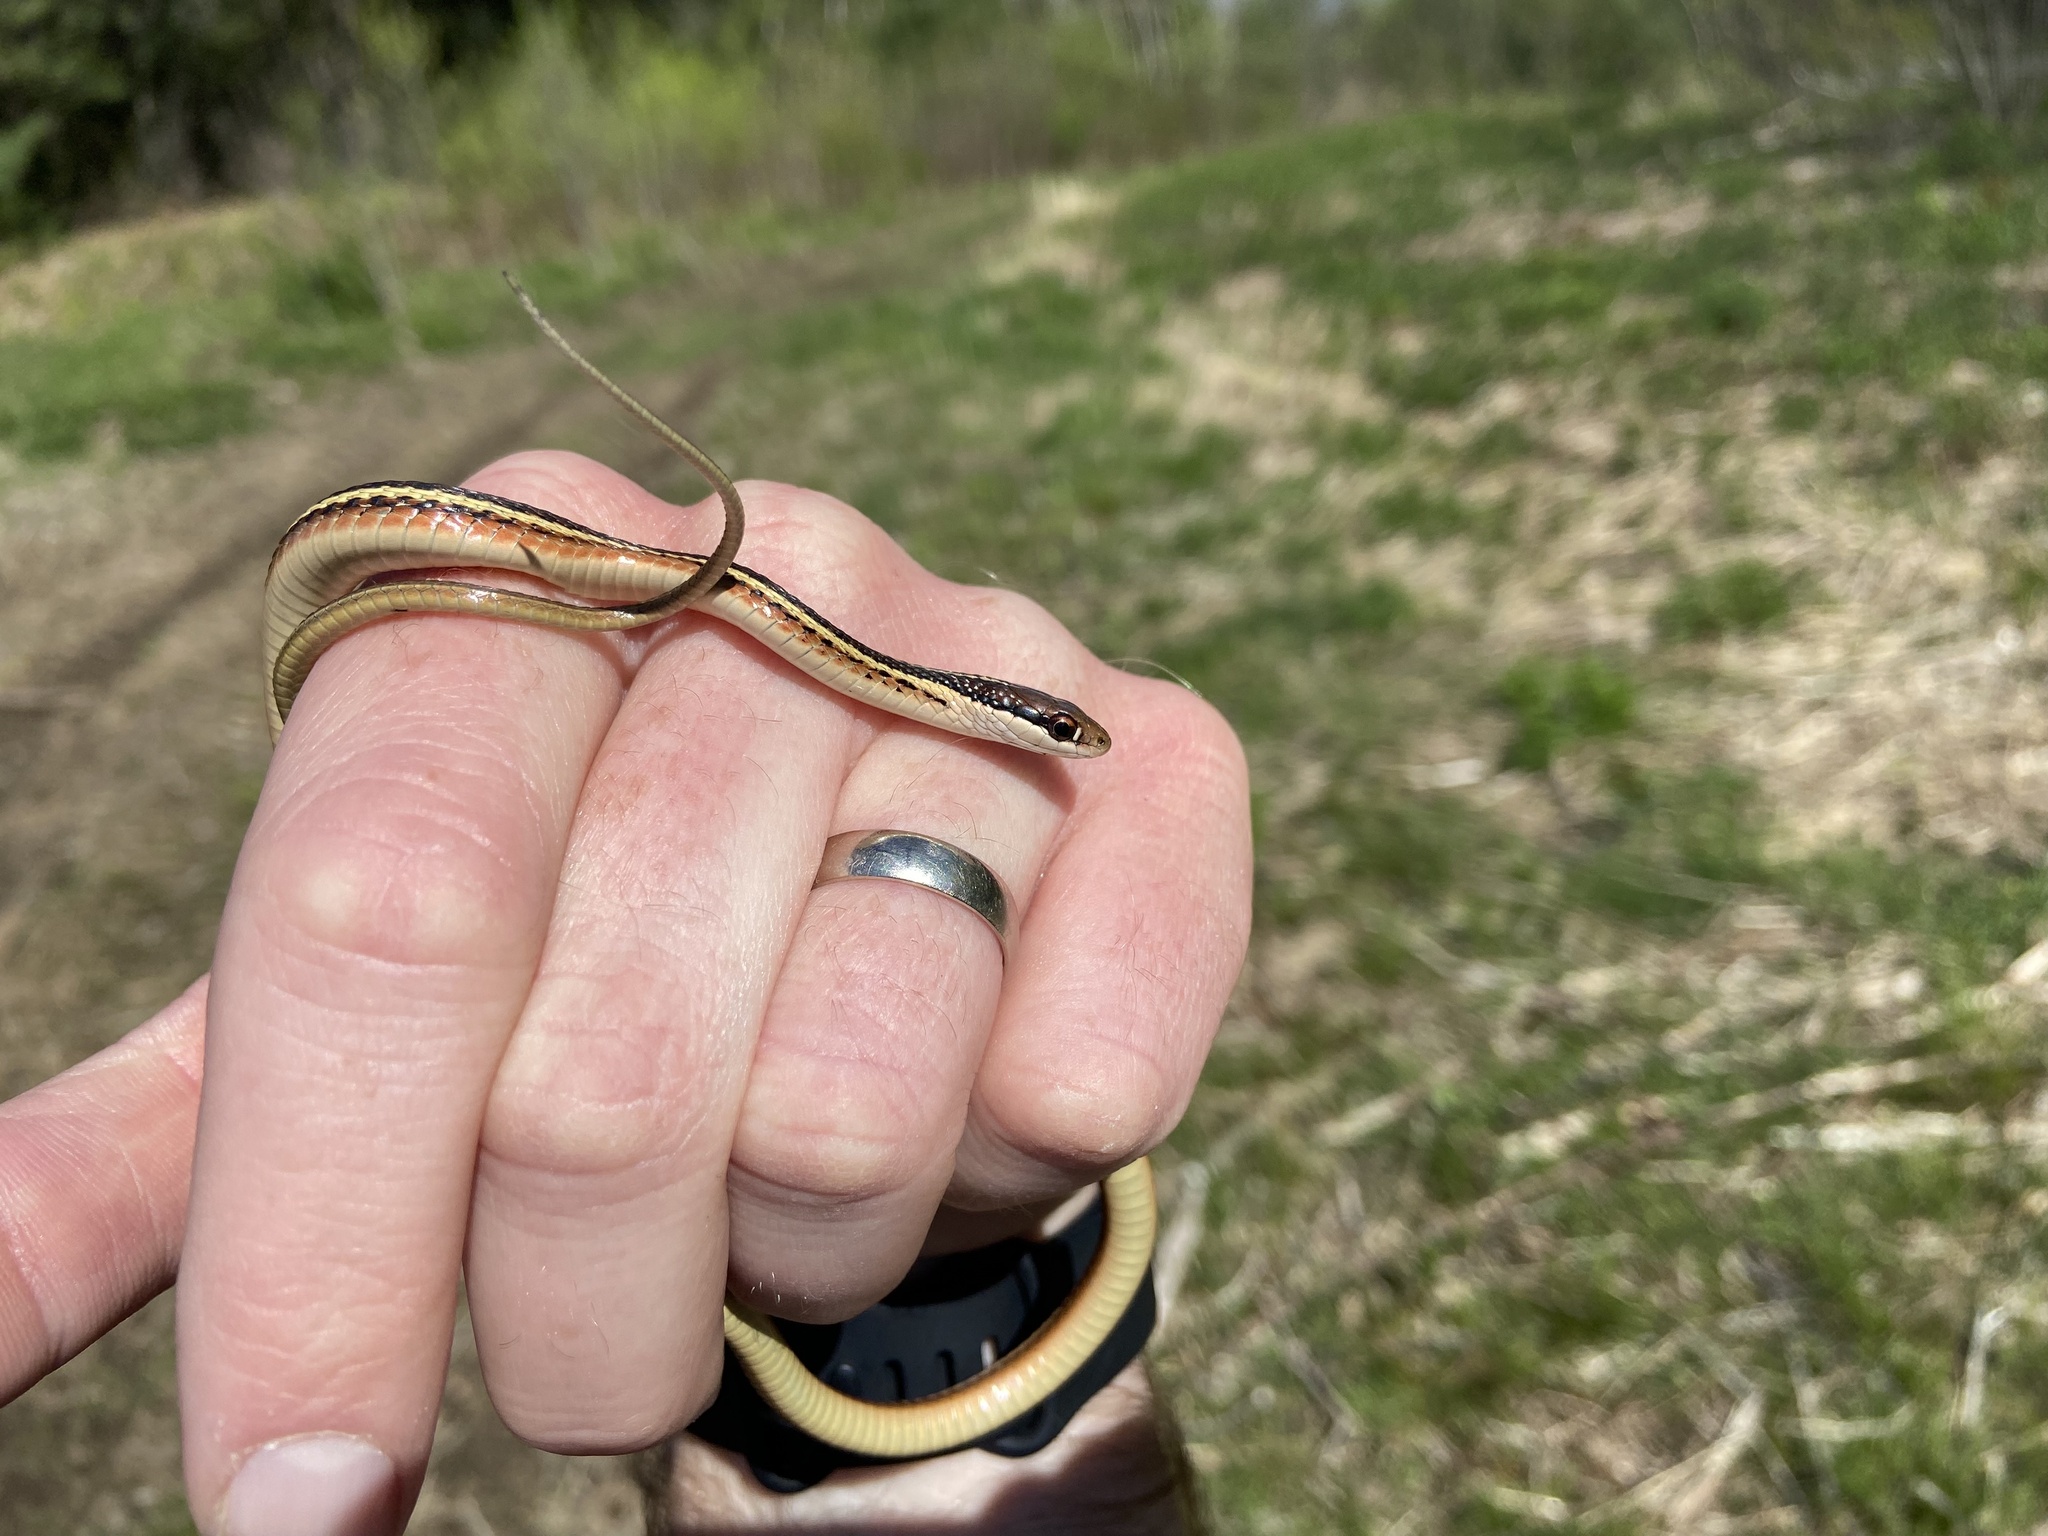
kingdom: Animalia
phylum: Chordata
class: Squamata
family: Colubridae
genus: Thamnophis
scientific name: Thamnophis saurita
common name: Eastern ribbonsnake
